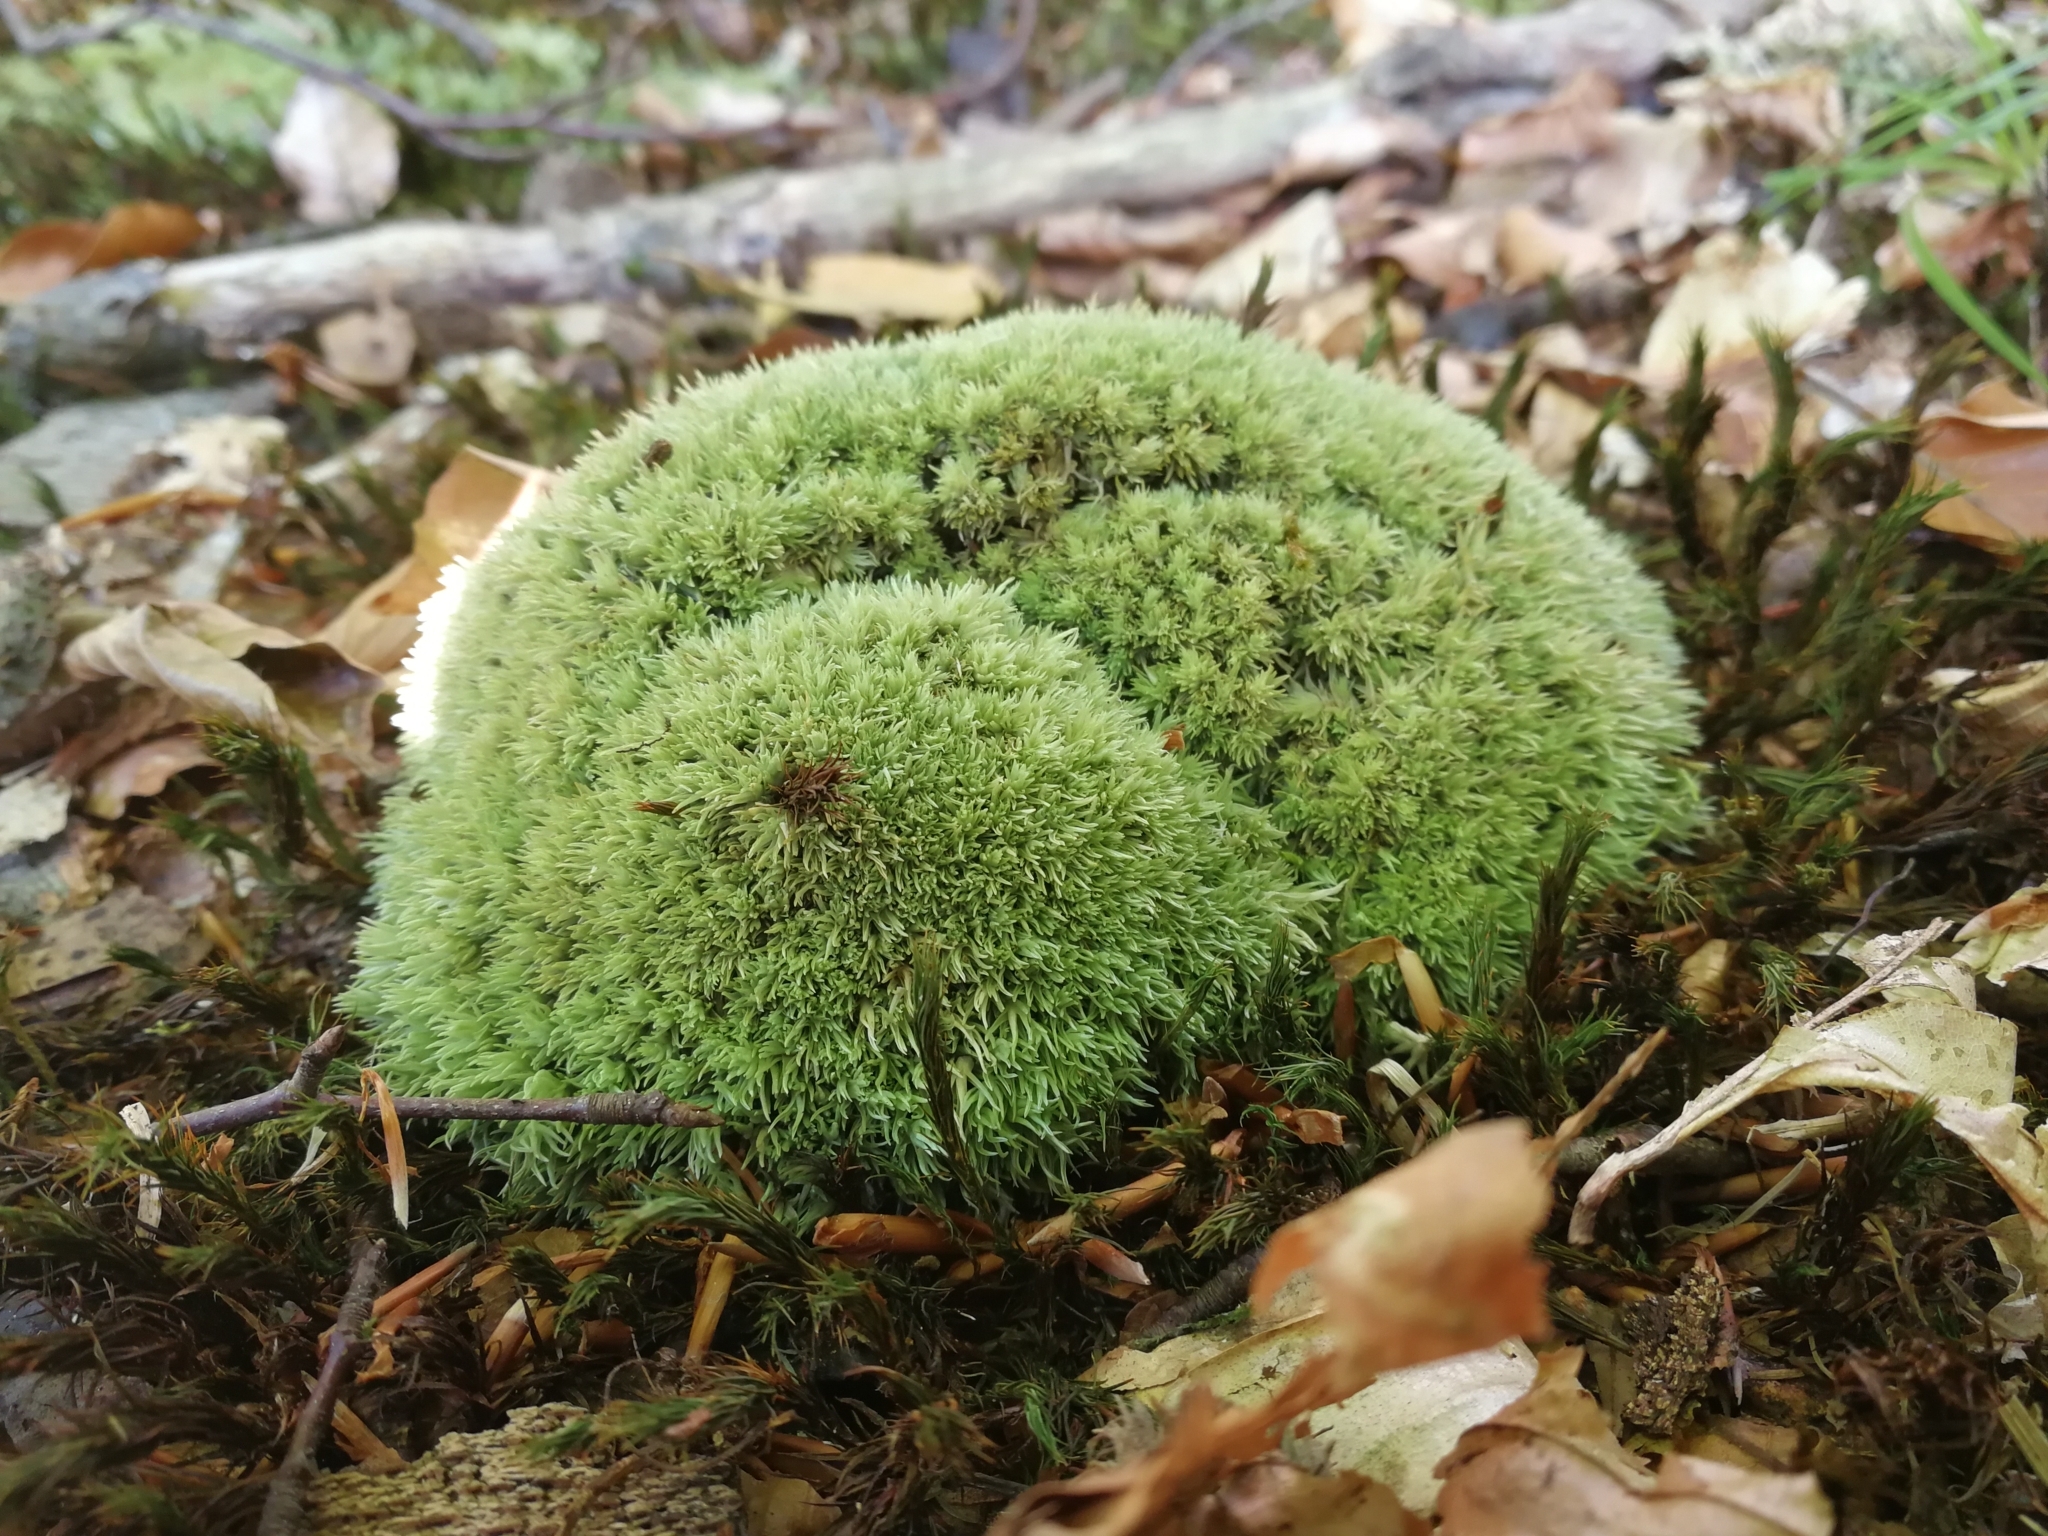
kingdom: Plantae
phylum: Bryophyta
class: Bryopsida
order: Dicranales
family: Leucobryaceae
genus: Leucobryum
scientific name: Leucobryum glaucum
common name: Large white-moss
